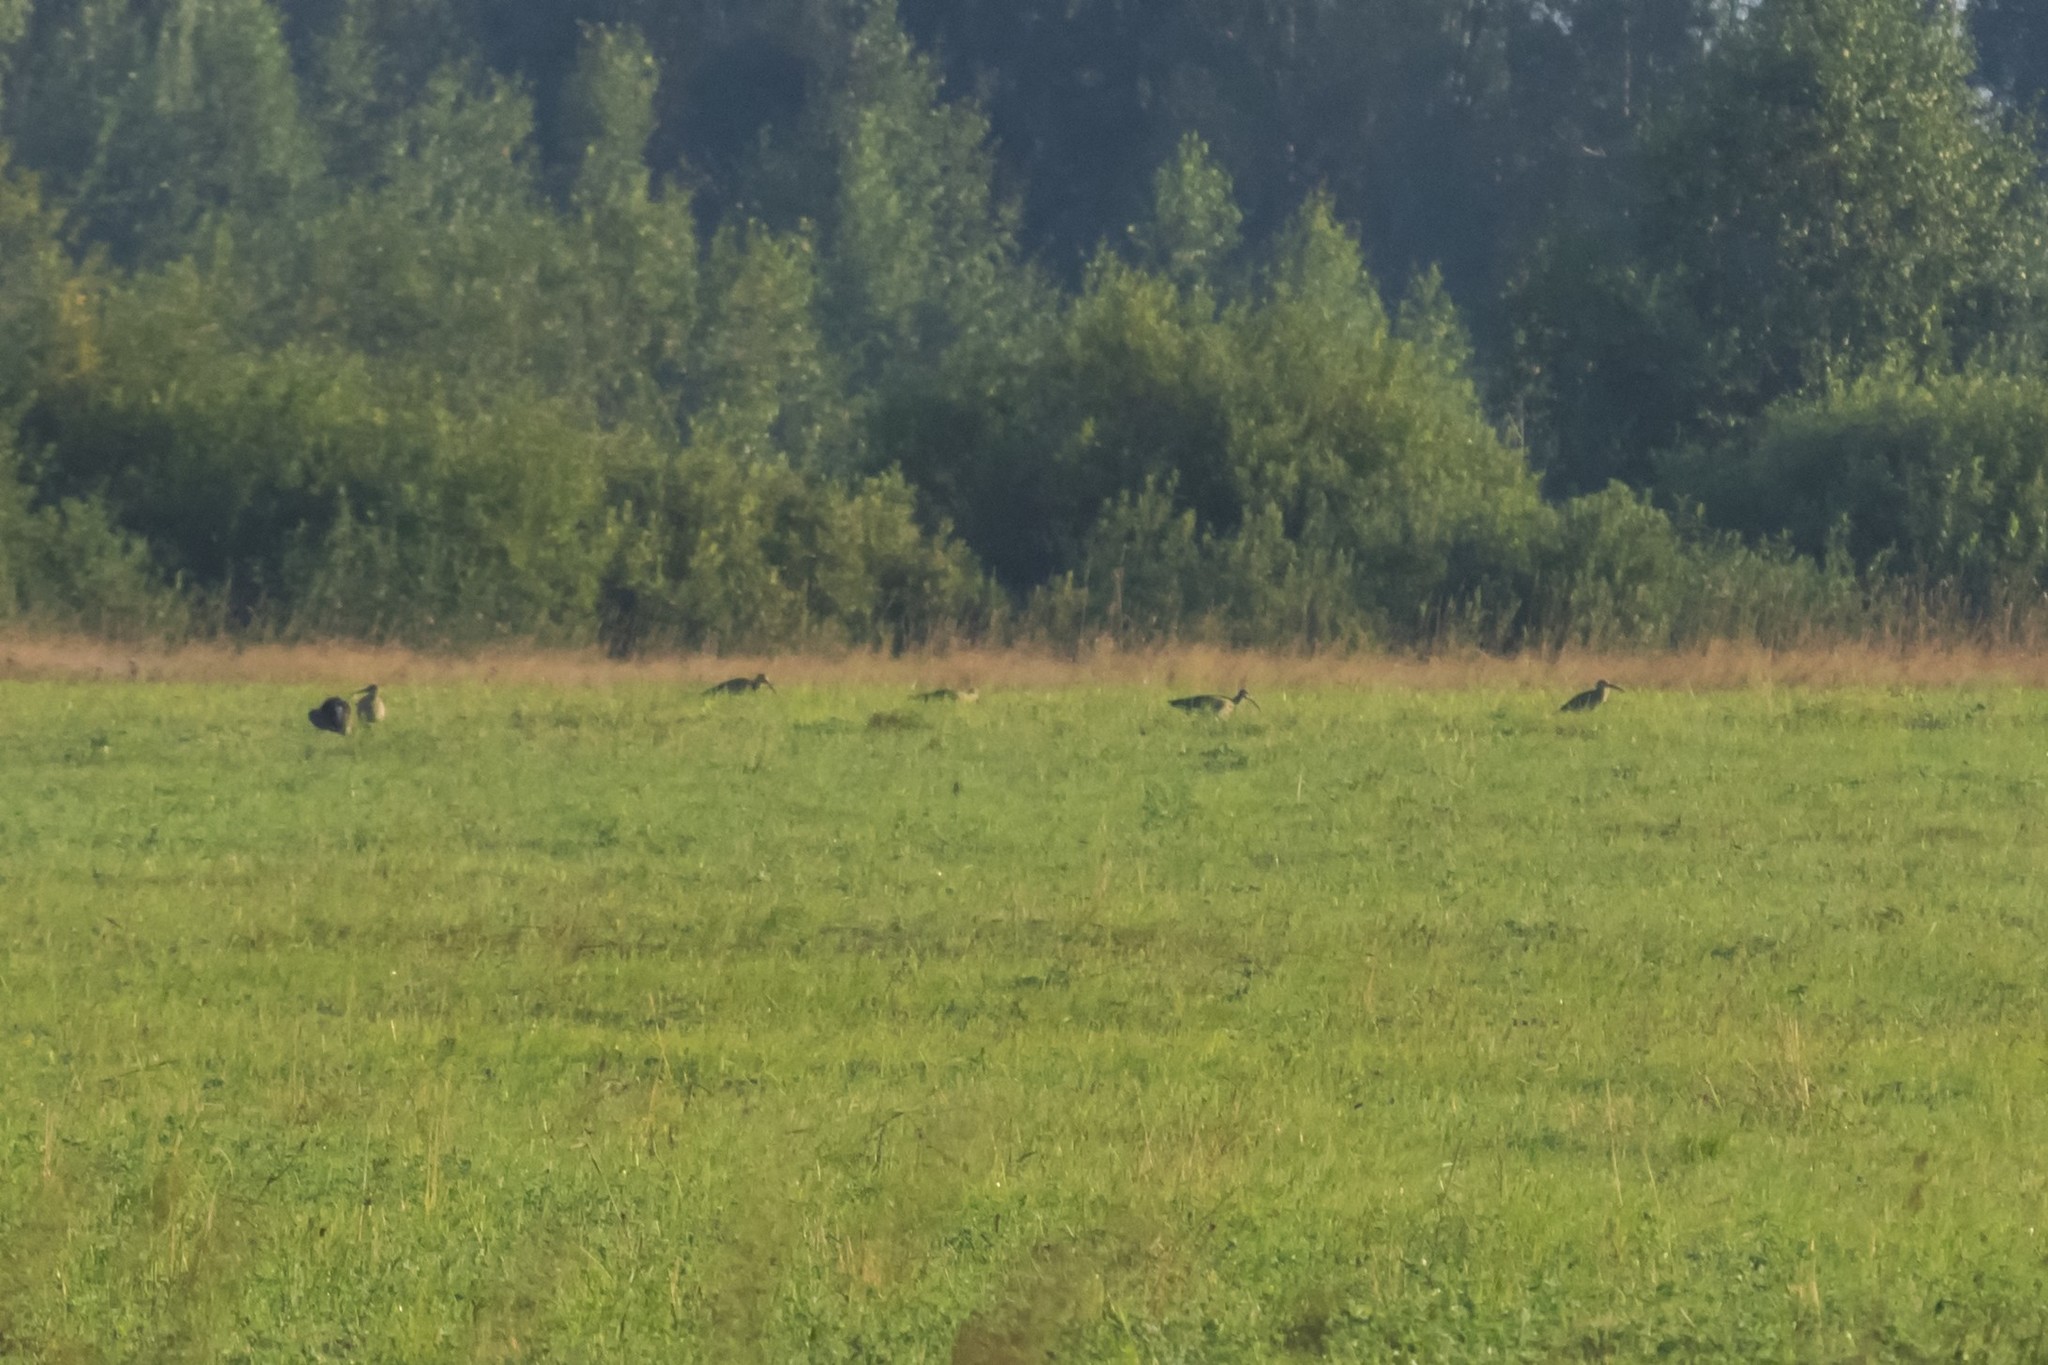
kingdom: Animalia
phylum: Chordata
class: Aves
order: Charadriiformes
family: Scolopacidae
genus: Numenius
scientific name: Numenius arquata
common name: Eurasian curlew
